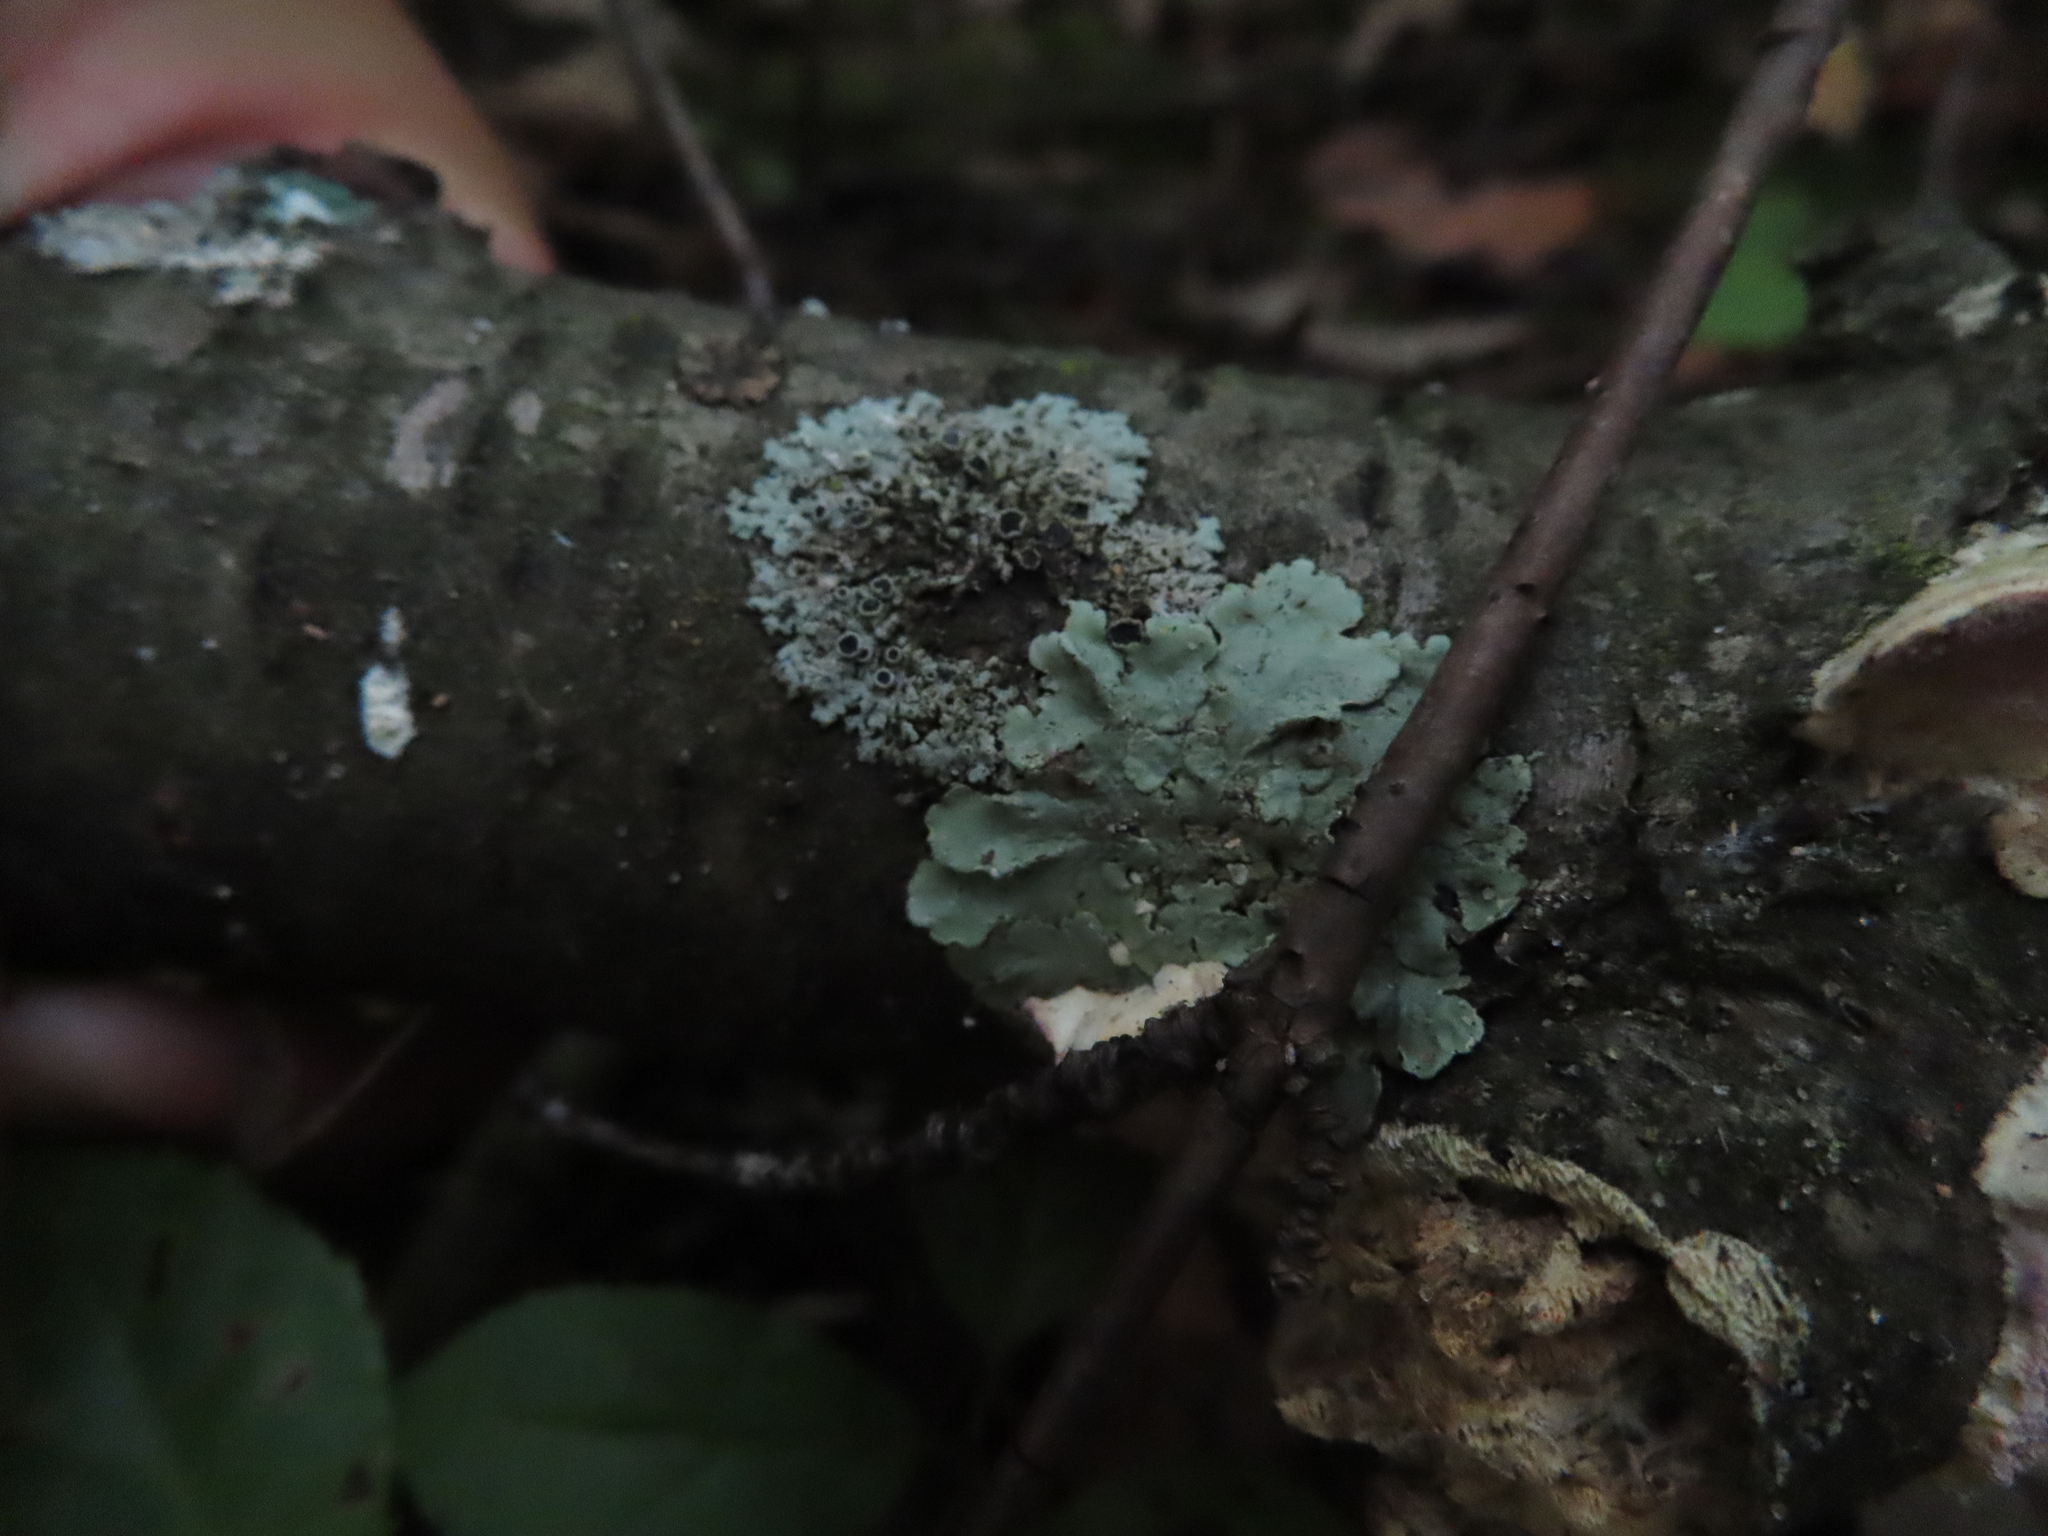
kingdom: Fungi
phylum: Ascomycota
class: Lecanoromycetes
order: Lecanorales
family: Parmeliaceae
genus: Flavoparmelia
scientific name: Flavoparmelia caperata
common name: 40-mile per hour lichen
